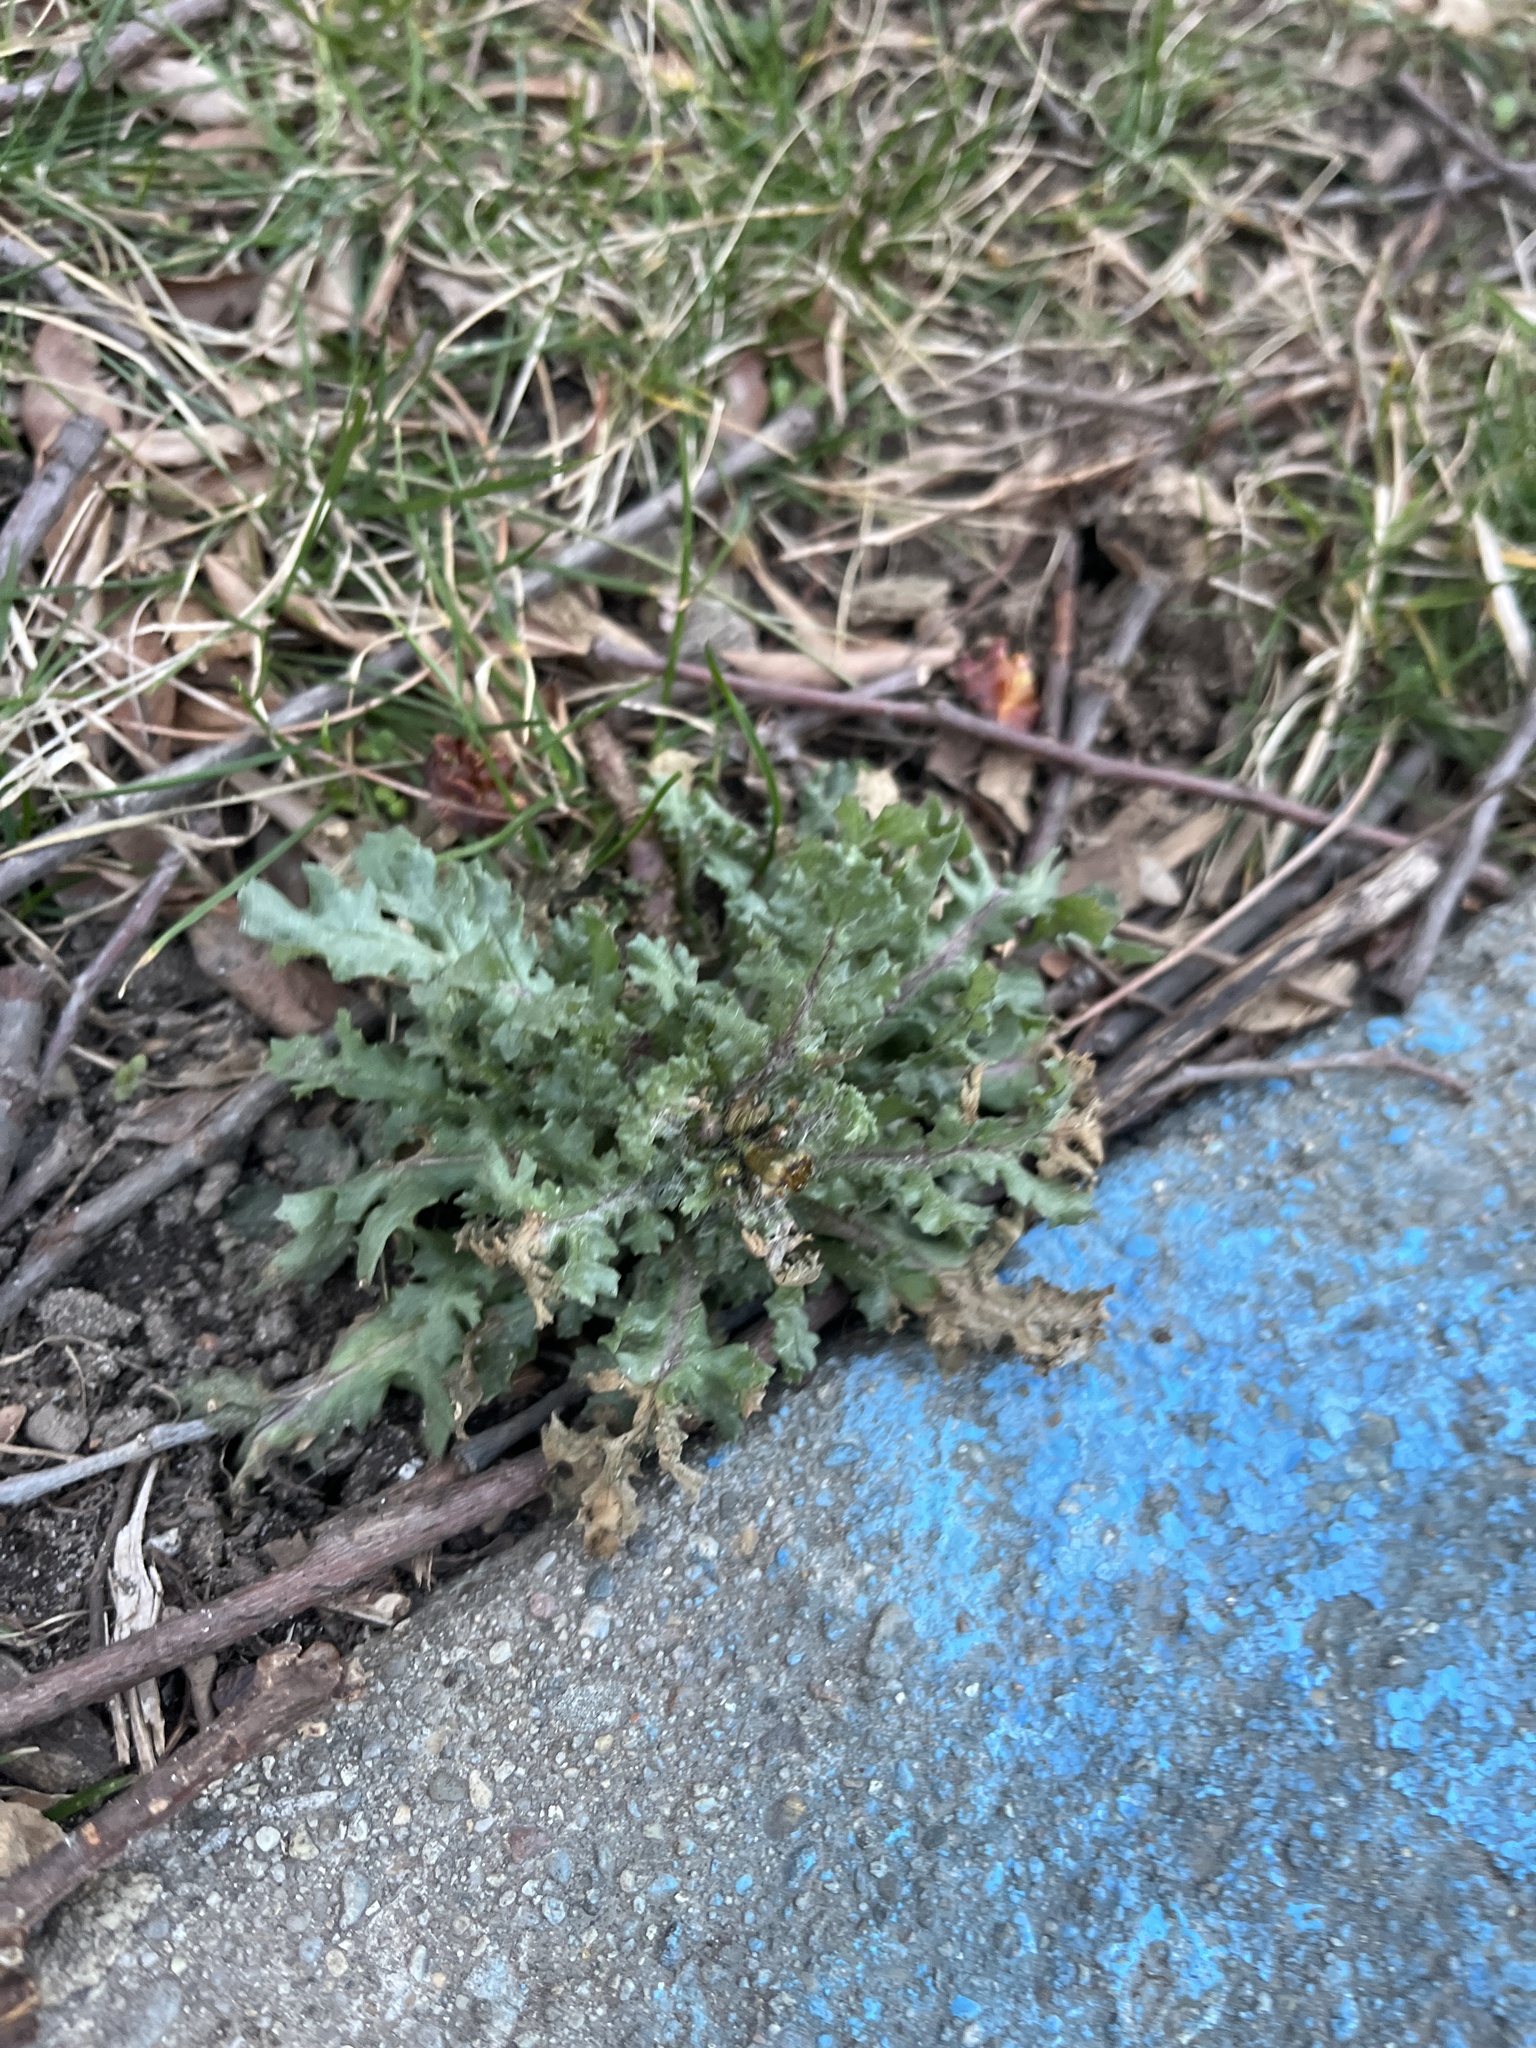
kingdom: Plantae
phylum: Tracheophyta
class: Magnoliopsida
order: Asterales
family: Asteraceae
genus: Senecio
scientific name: Senecio vulgaris
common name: Old-man-in-the-spring
